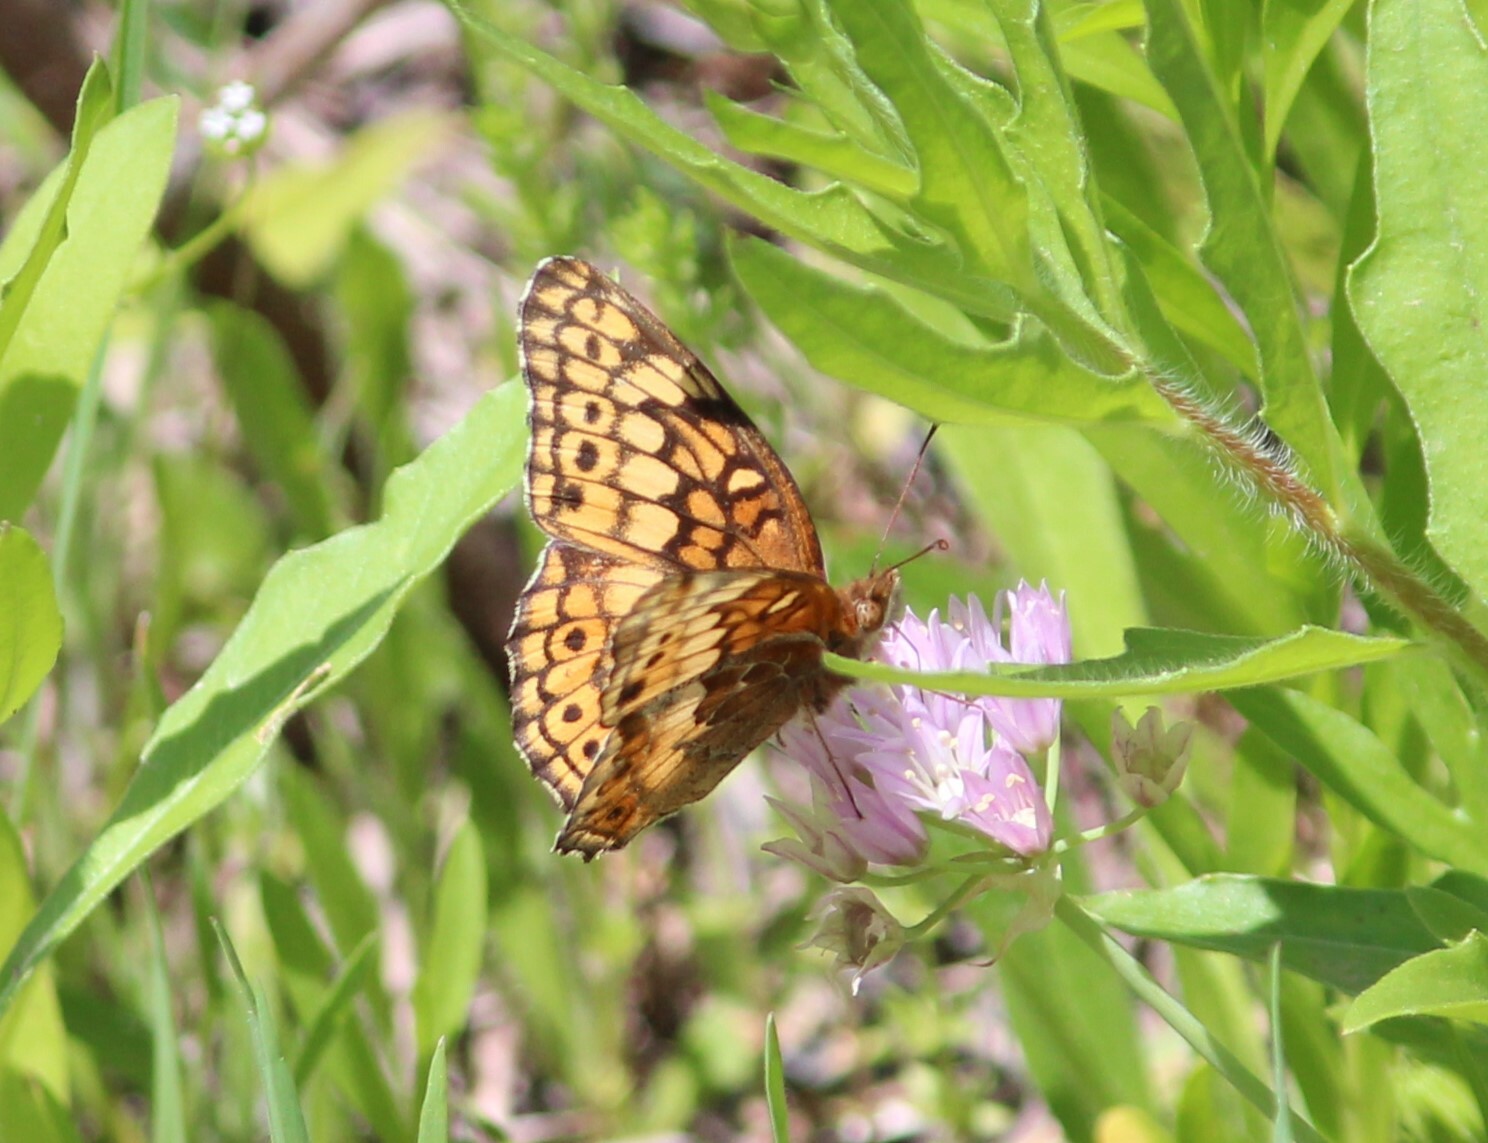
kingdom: Animalia
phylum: Arthropoda
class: Insecta
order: Lepidoptera
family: Nymphalidae
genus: Euptoieta
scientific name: Euptoieta claudia
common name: Variegated fritillary
